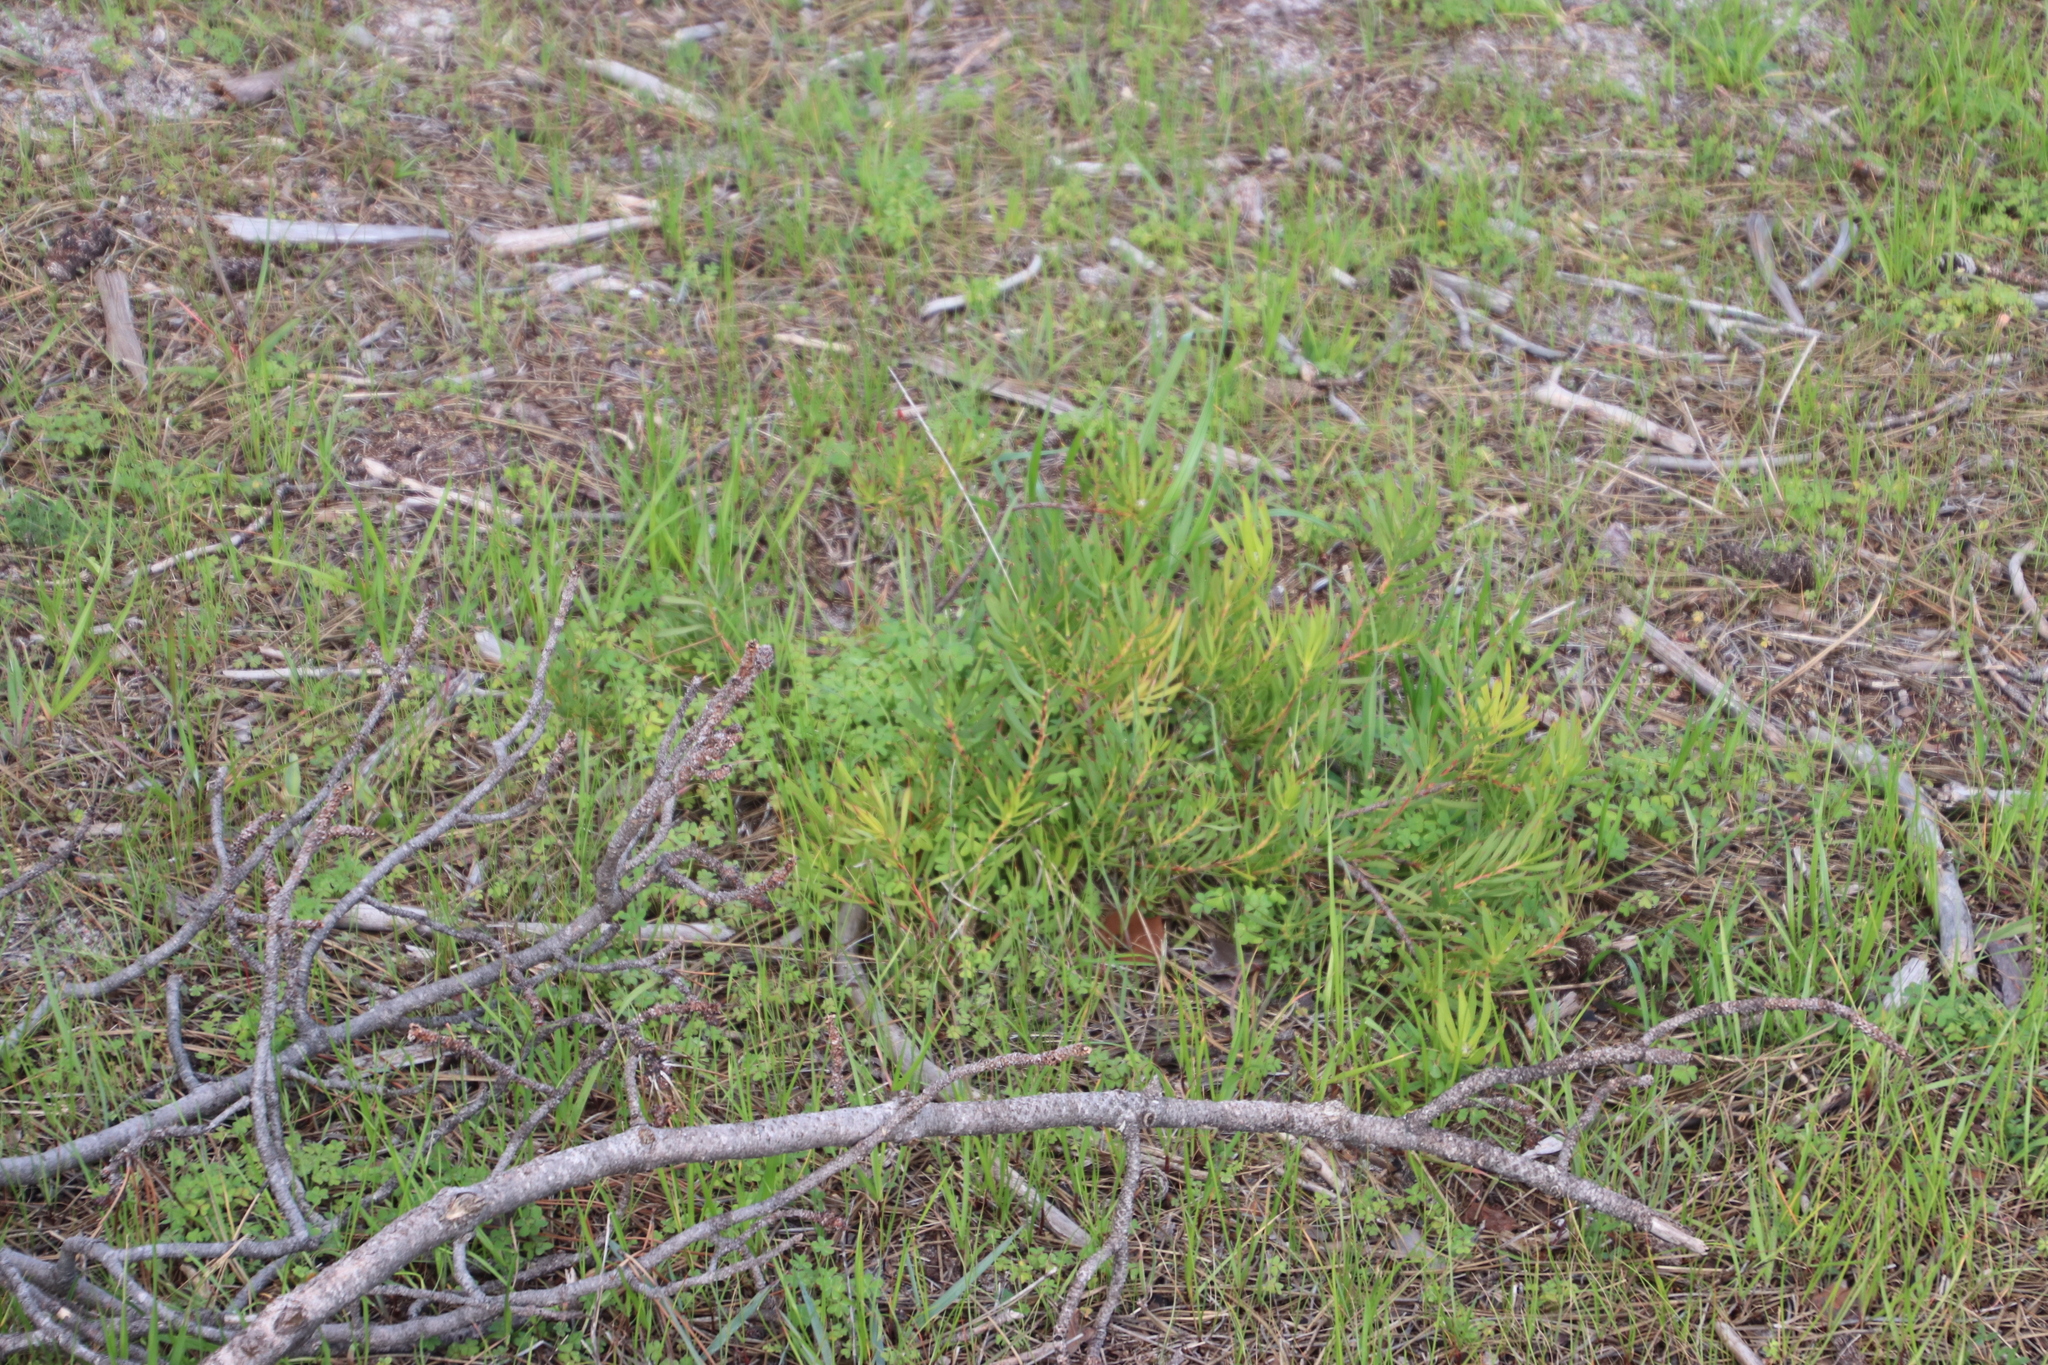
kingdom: Plantae
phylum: Tracheophyta
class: Magnoliopsida
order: Proteales
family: Proteaceae
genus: Leucadendron
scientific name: Leucadendron salignum
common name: Common sunshine conebush
